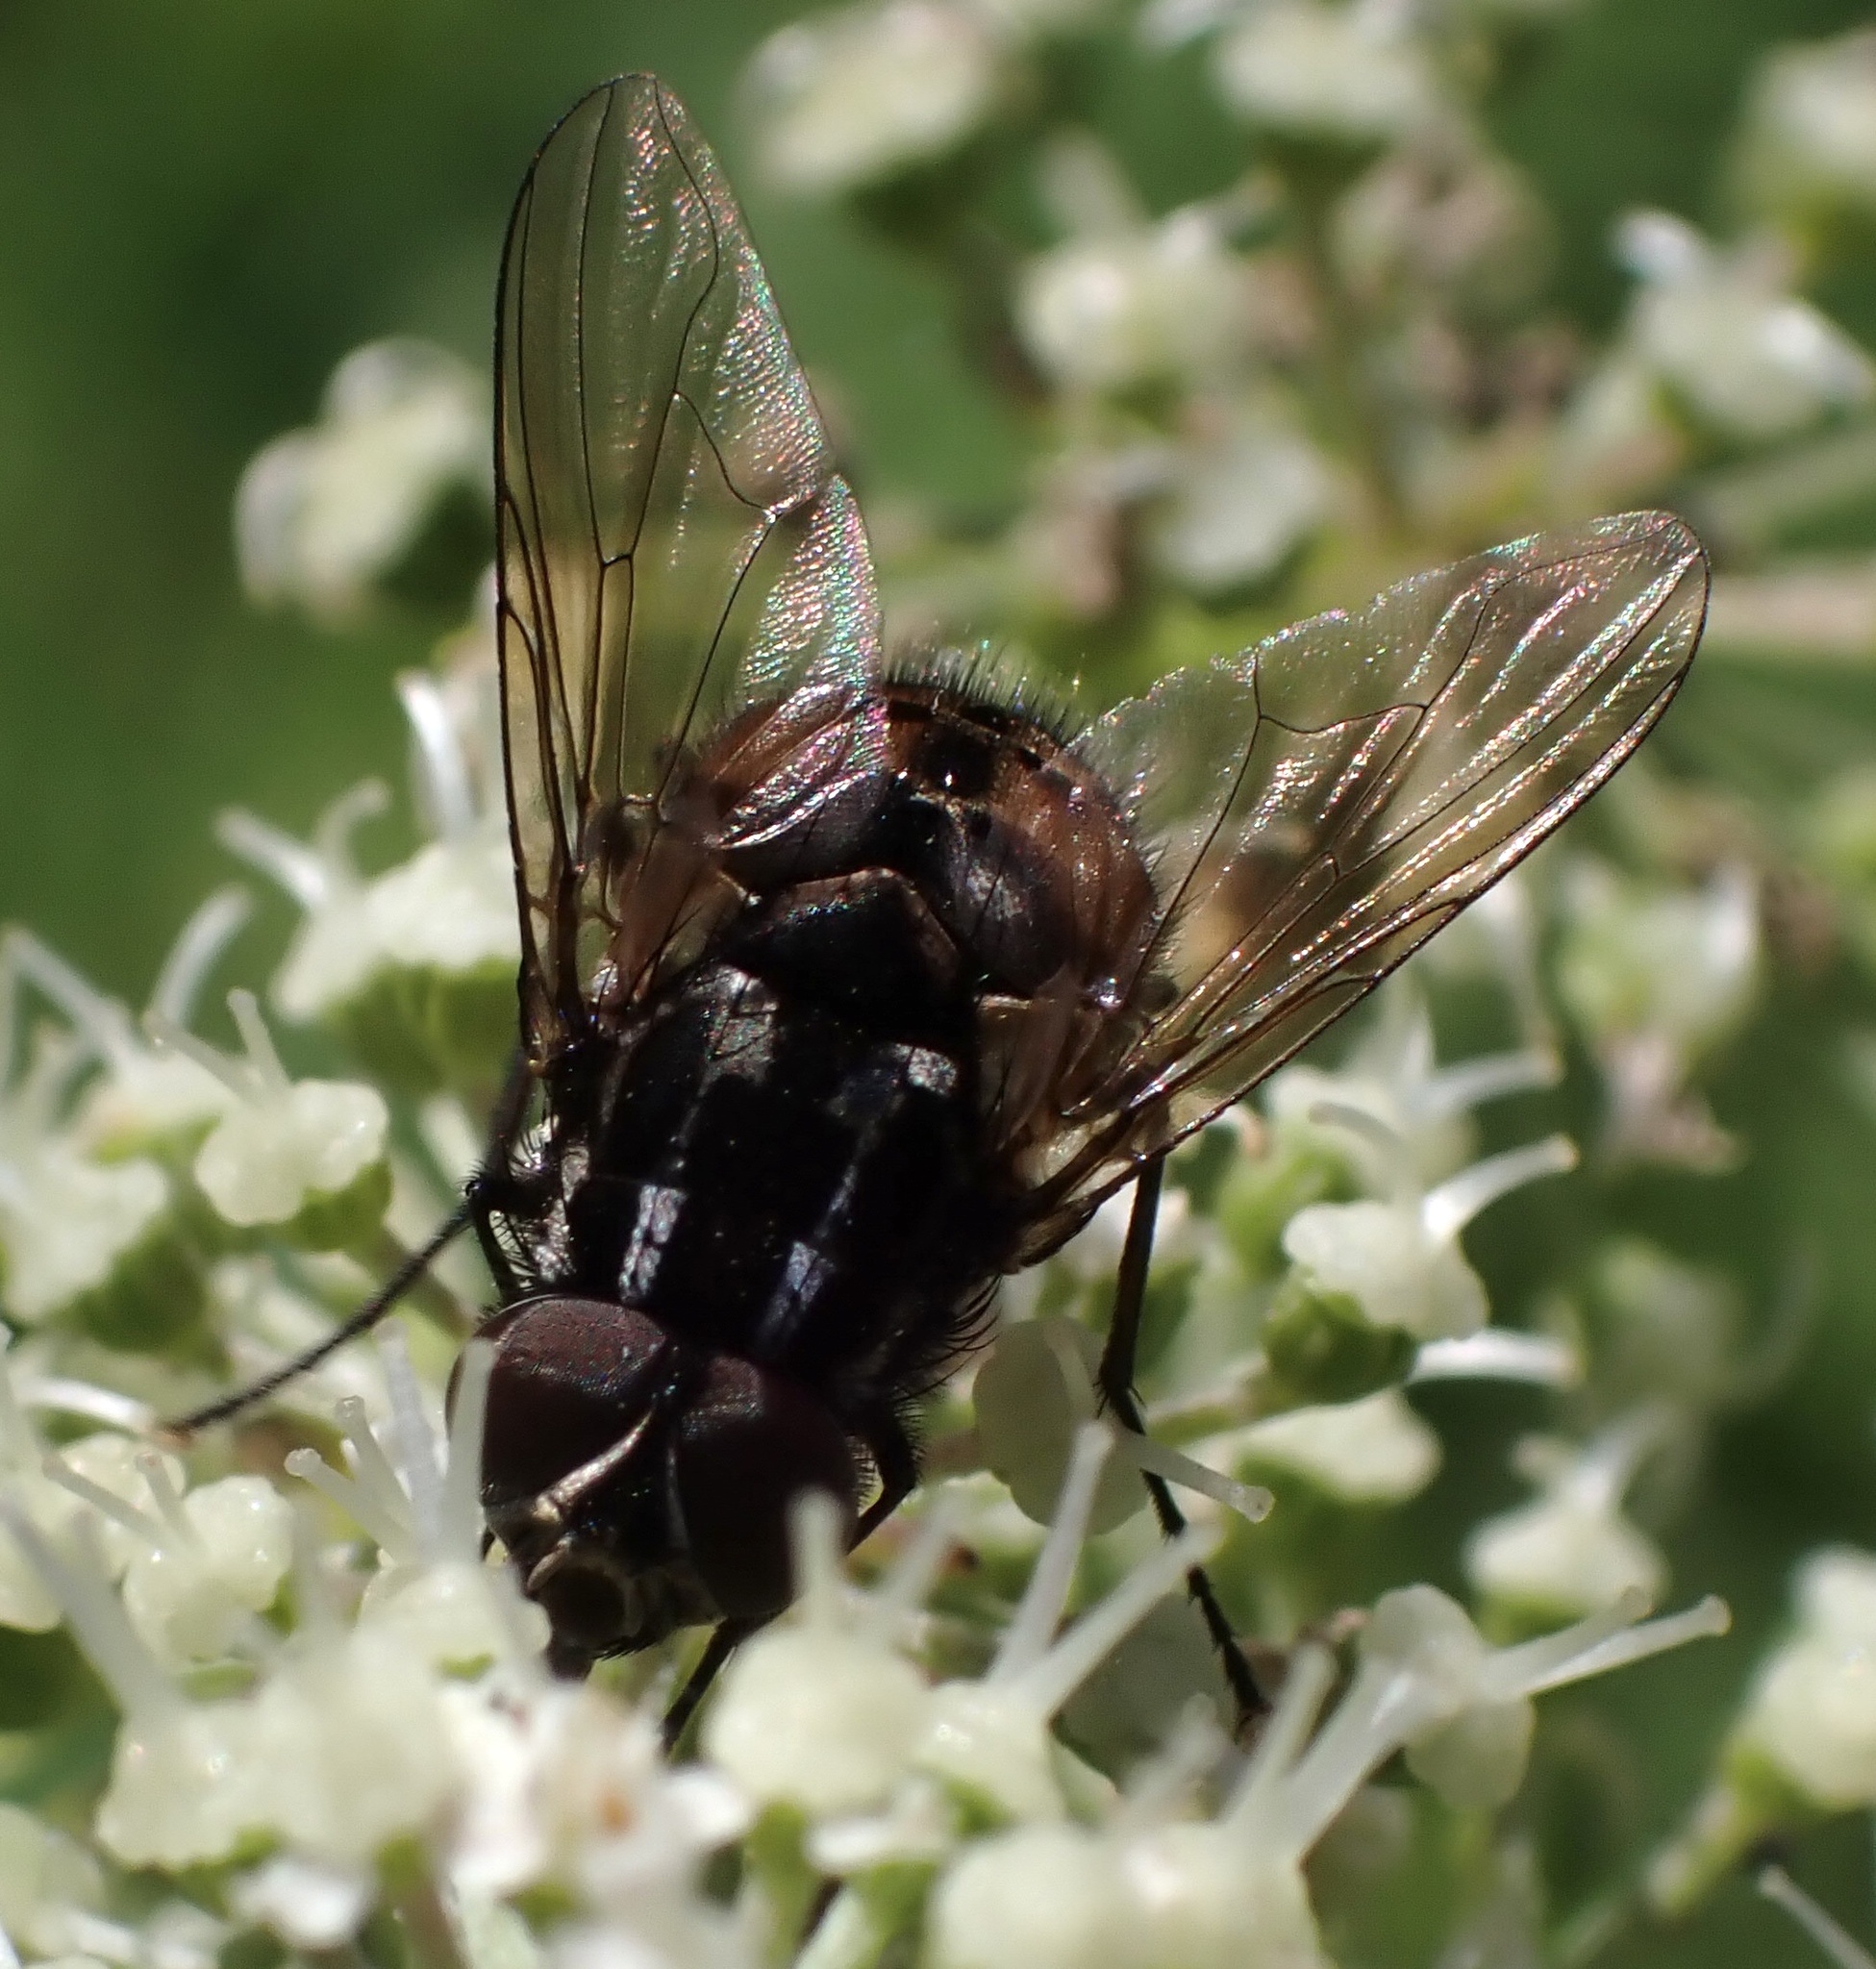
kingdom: Animalia
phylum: Arthropoda
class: Insecta
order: Diptera
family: Muscidae
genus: Graphomya
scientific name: Graphomya maculata
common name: Muscid fly
